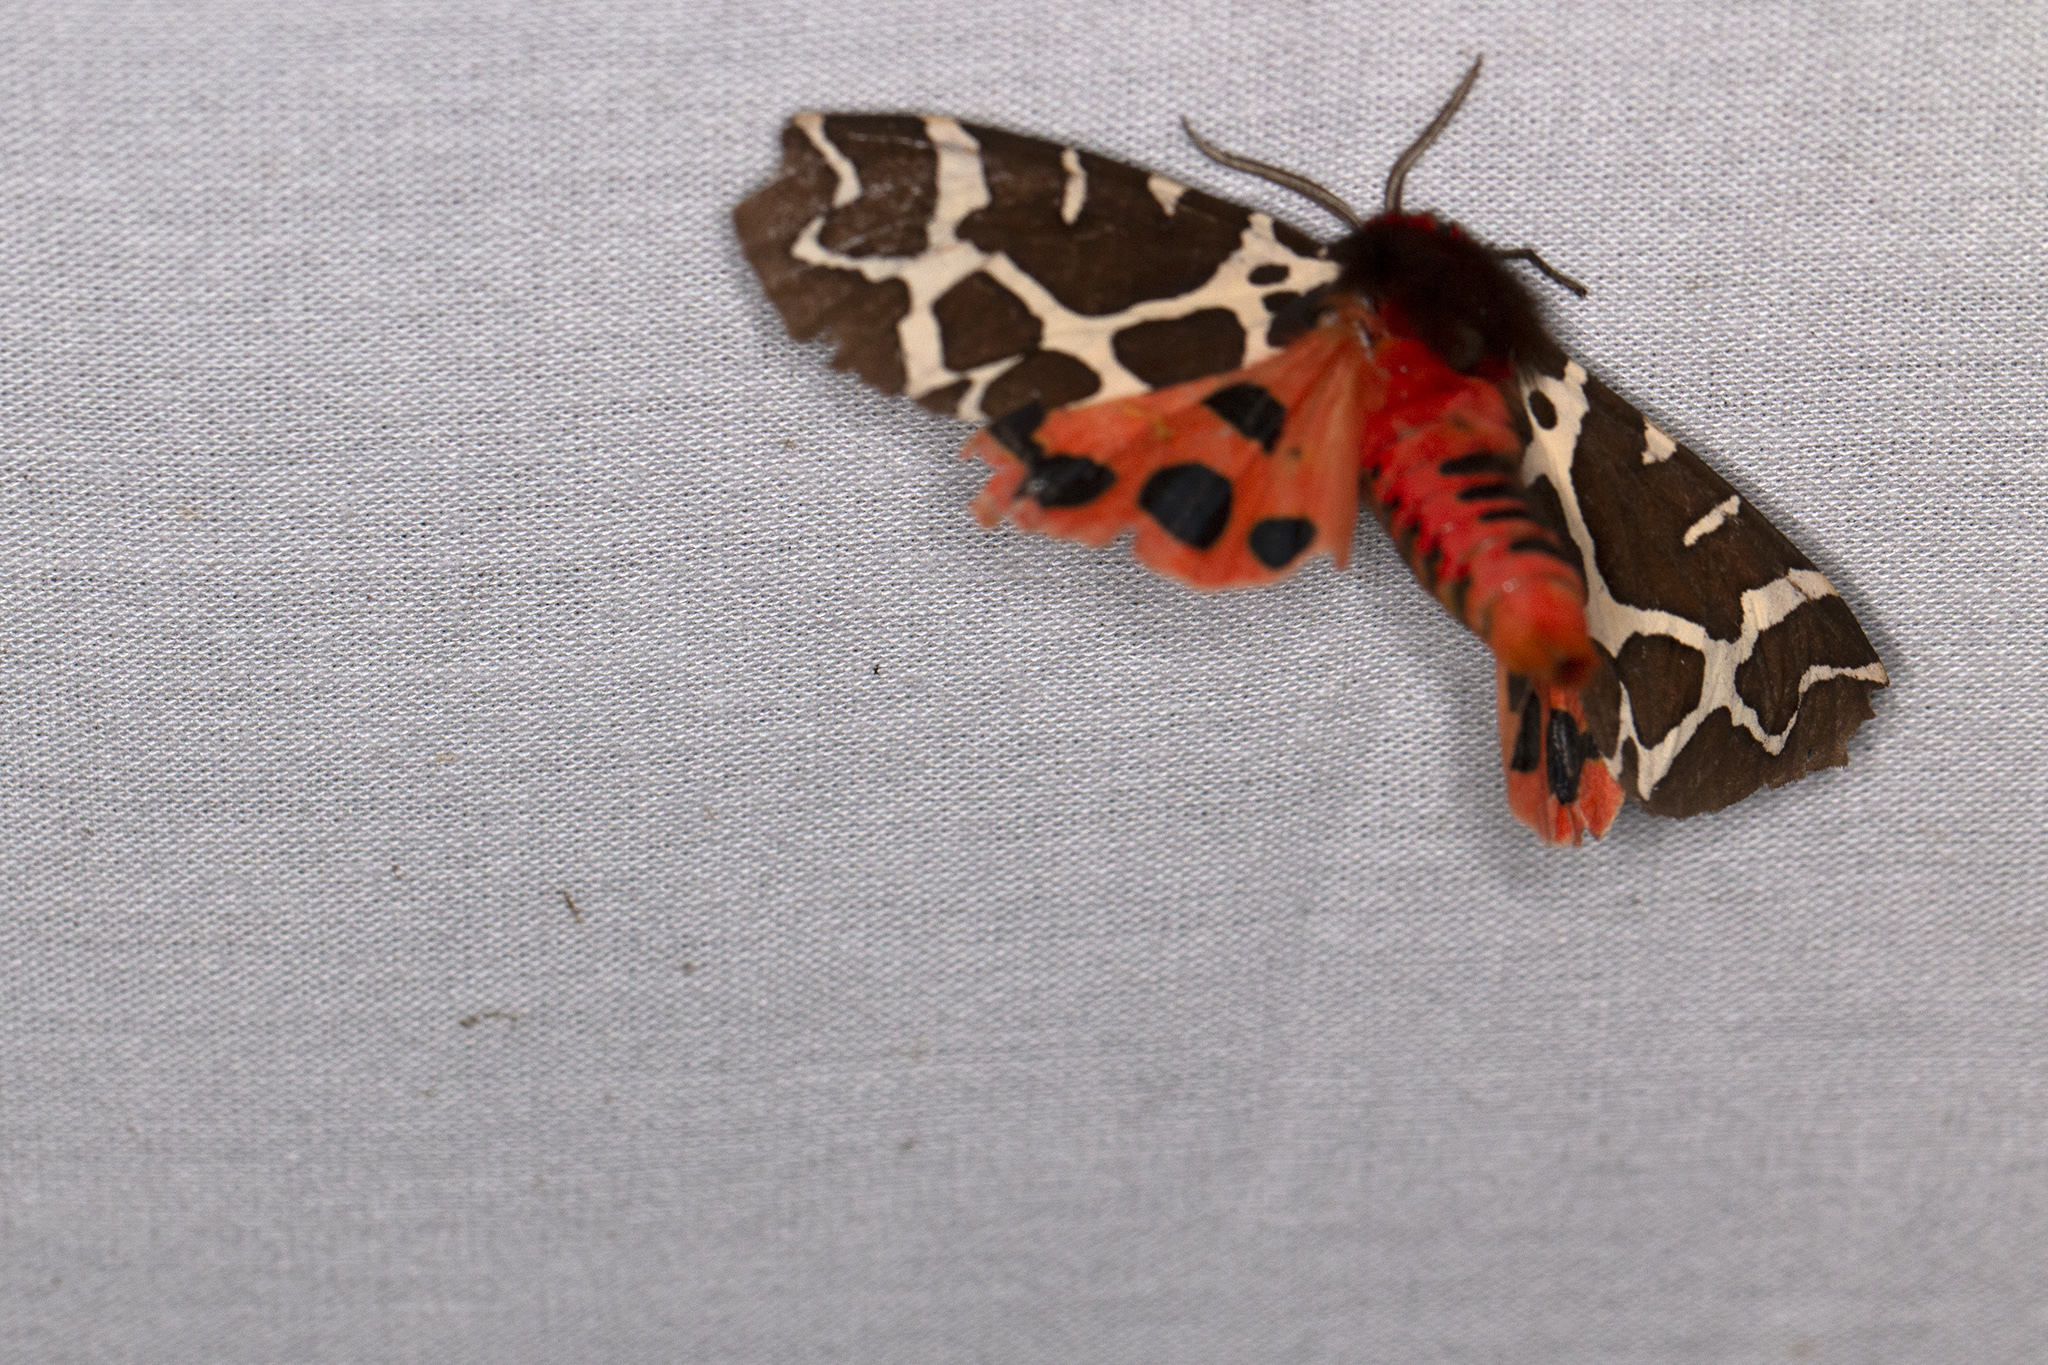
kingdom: Animalia
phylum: Arthropoda
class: Insecta
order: Lepidoptera
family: Erebidae
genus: Arctia
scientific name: Arctia caja
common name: Garden tiger
